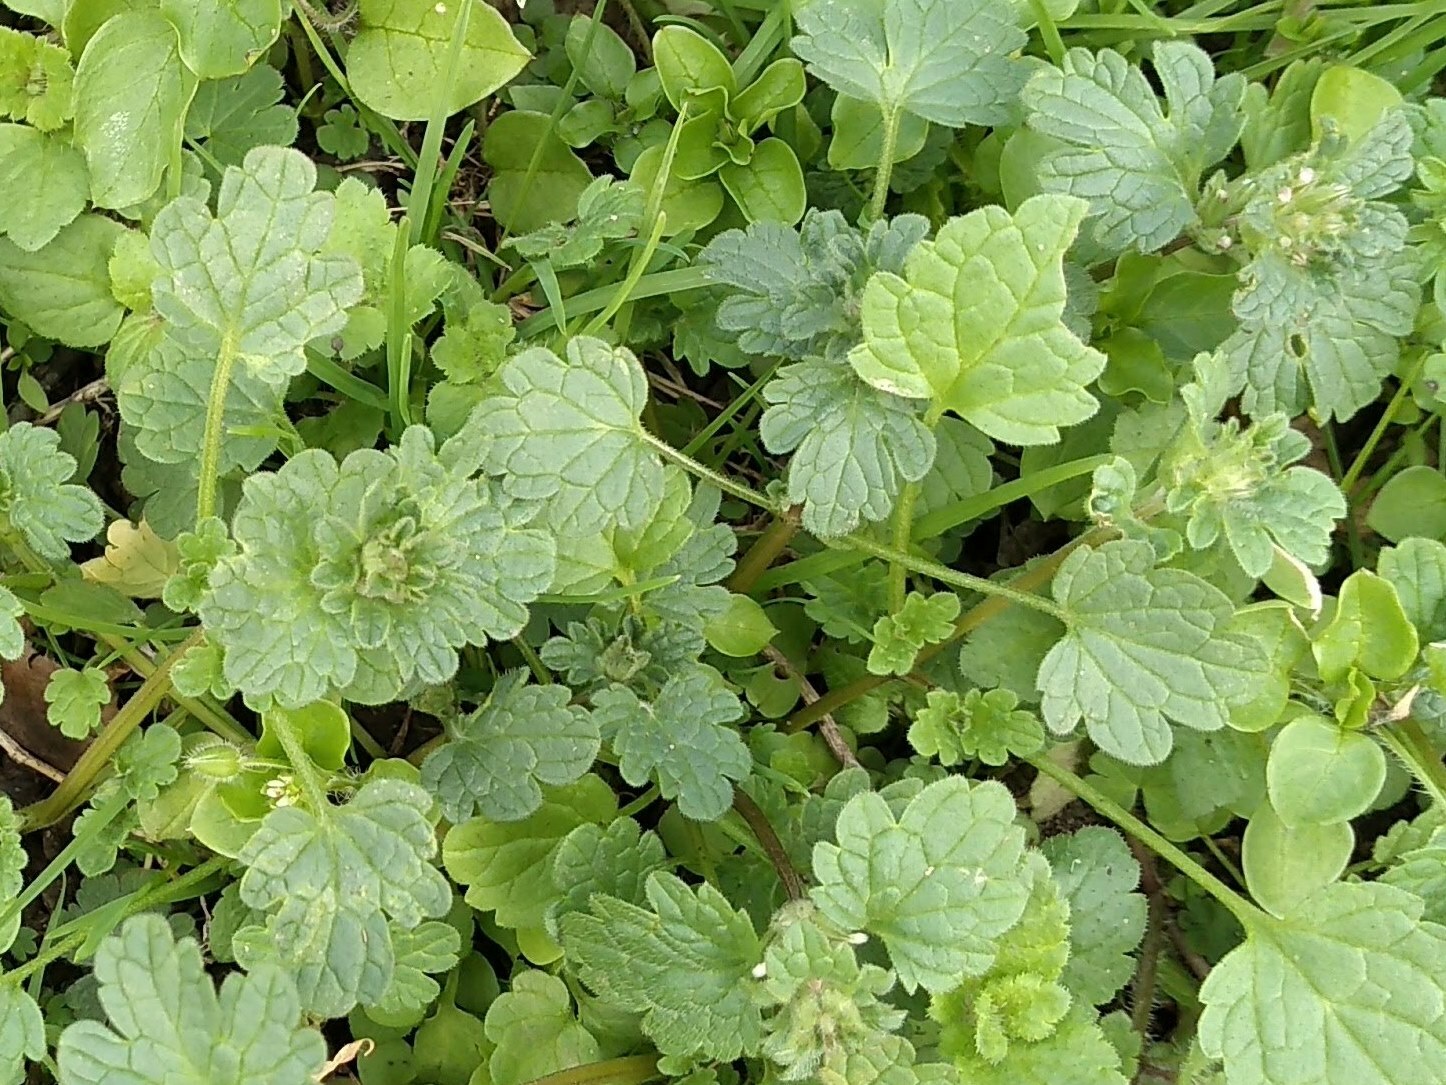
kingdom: Plantae
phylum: Tracheophyta
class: Magnoliopsida
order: Lamiales
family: Lamiaceae
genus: Lamium
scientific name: Lamium amplexicaule
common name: Henbit dead-nettle
